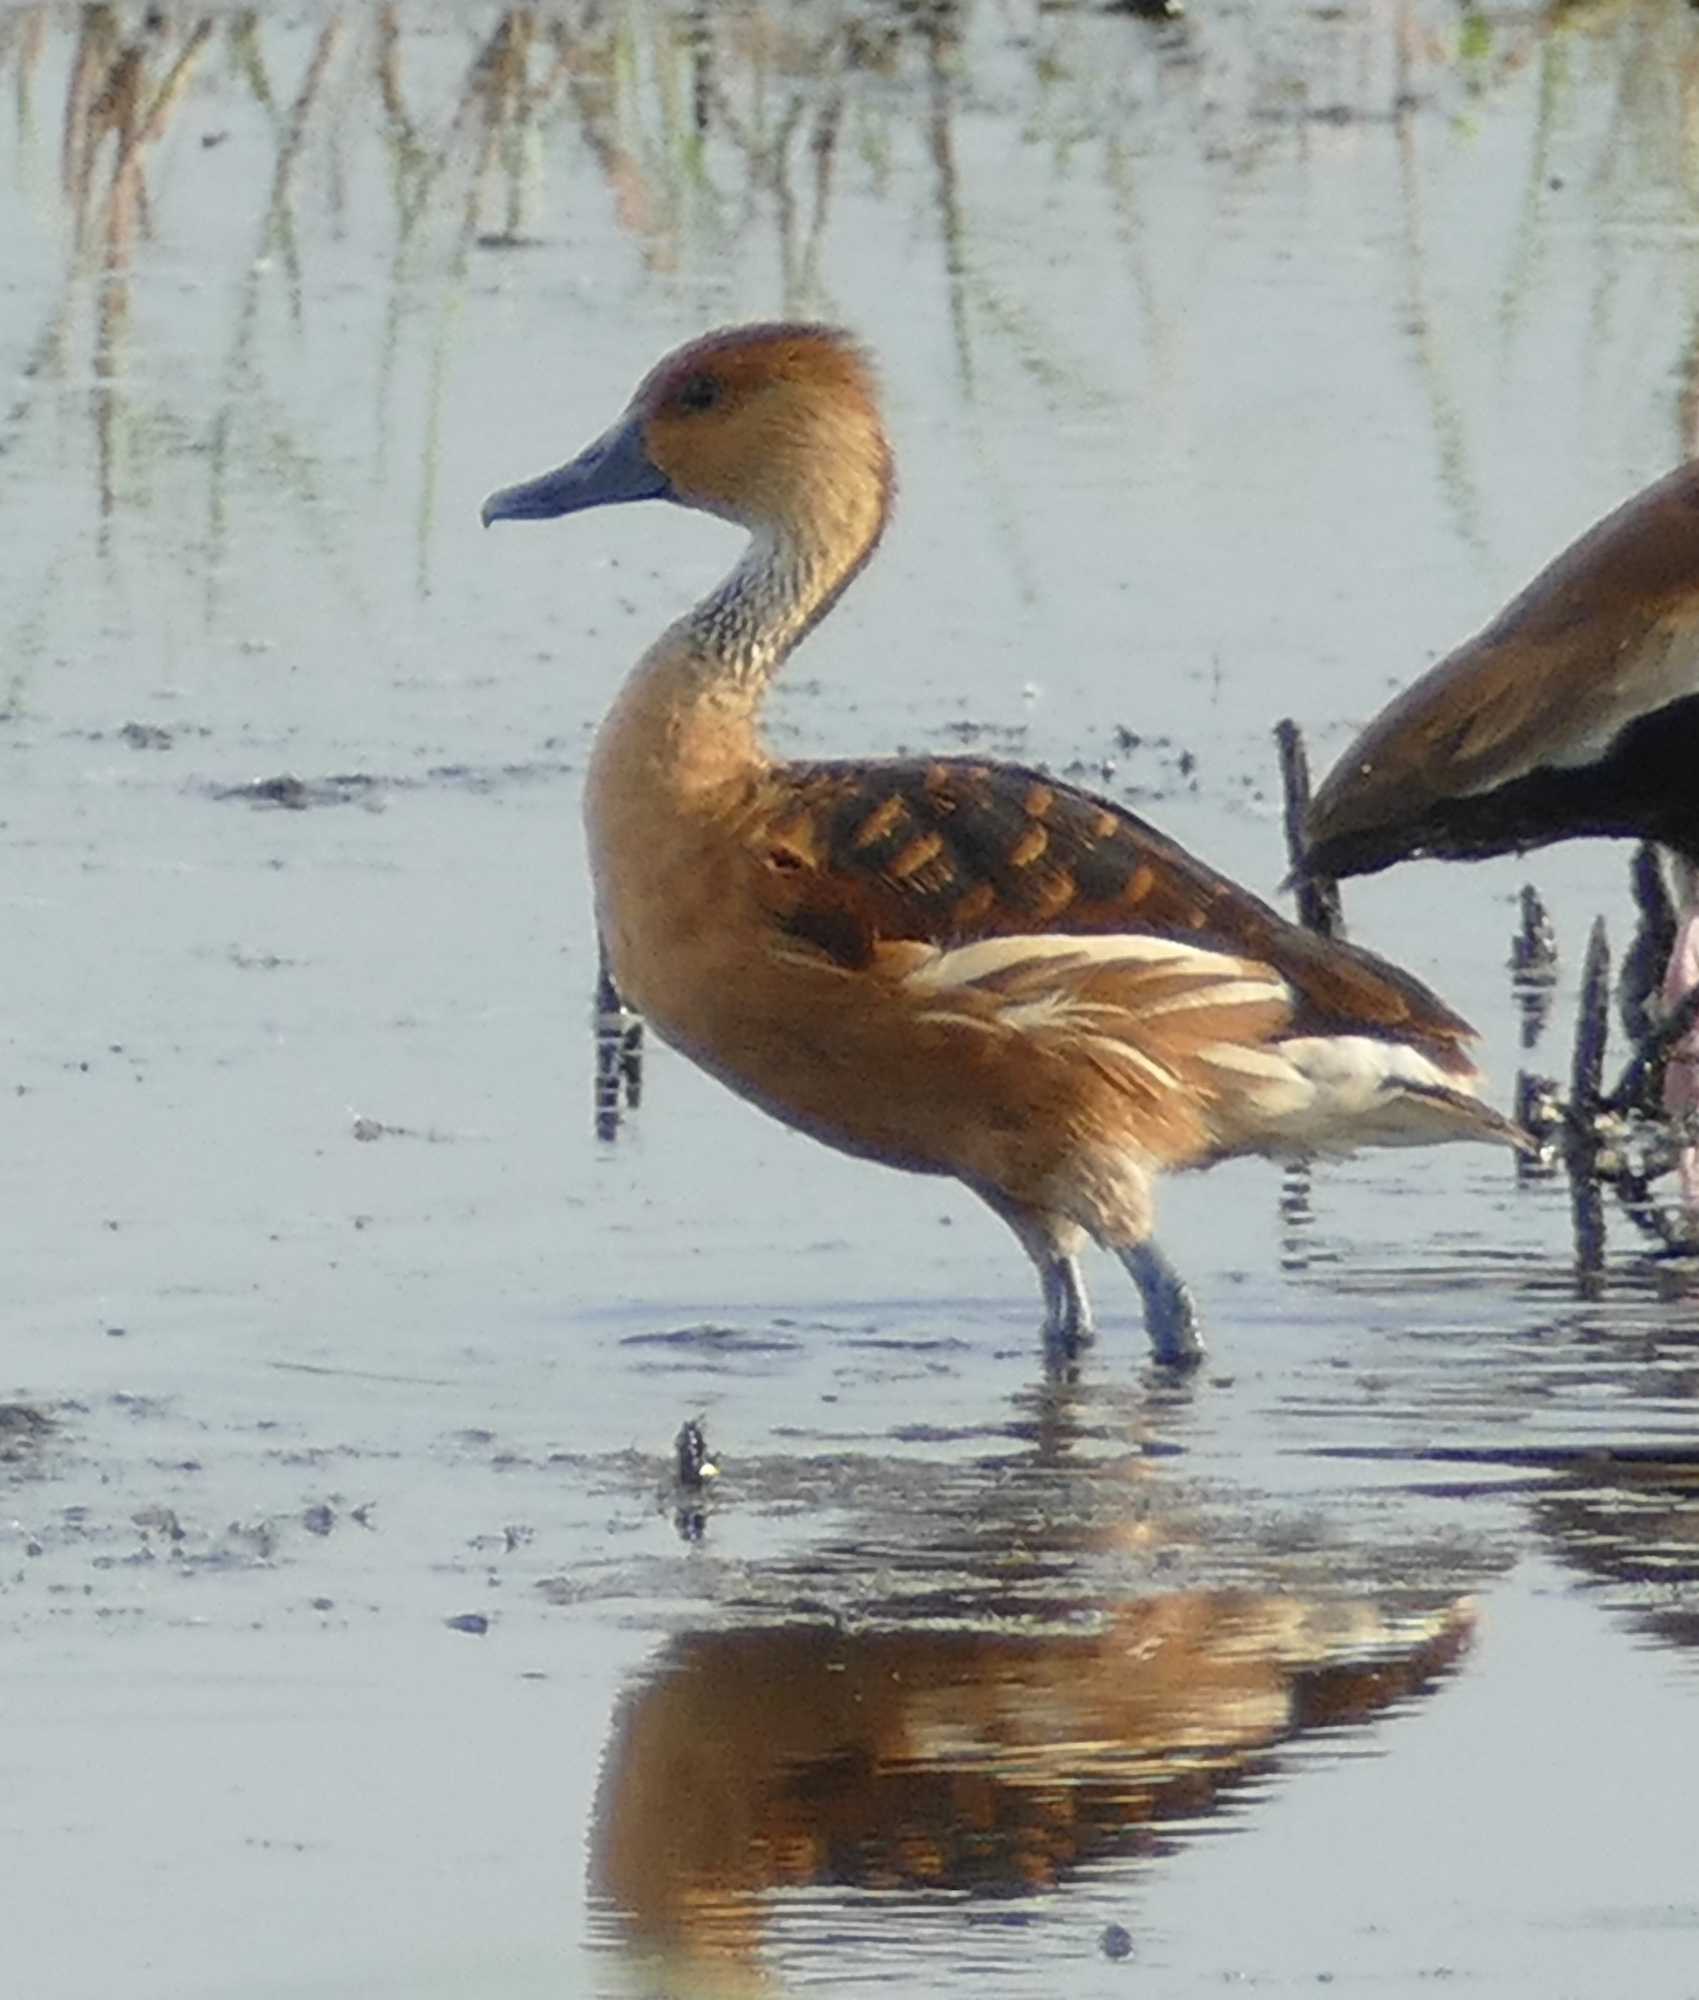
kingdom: Animalia
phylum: Chordata
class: Aves
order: Anseriformes
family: Anatidae
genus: Dendrocygna
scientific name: Dendrocygna bicolor
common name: Fulvous whistling duck
